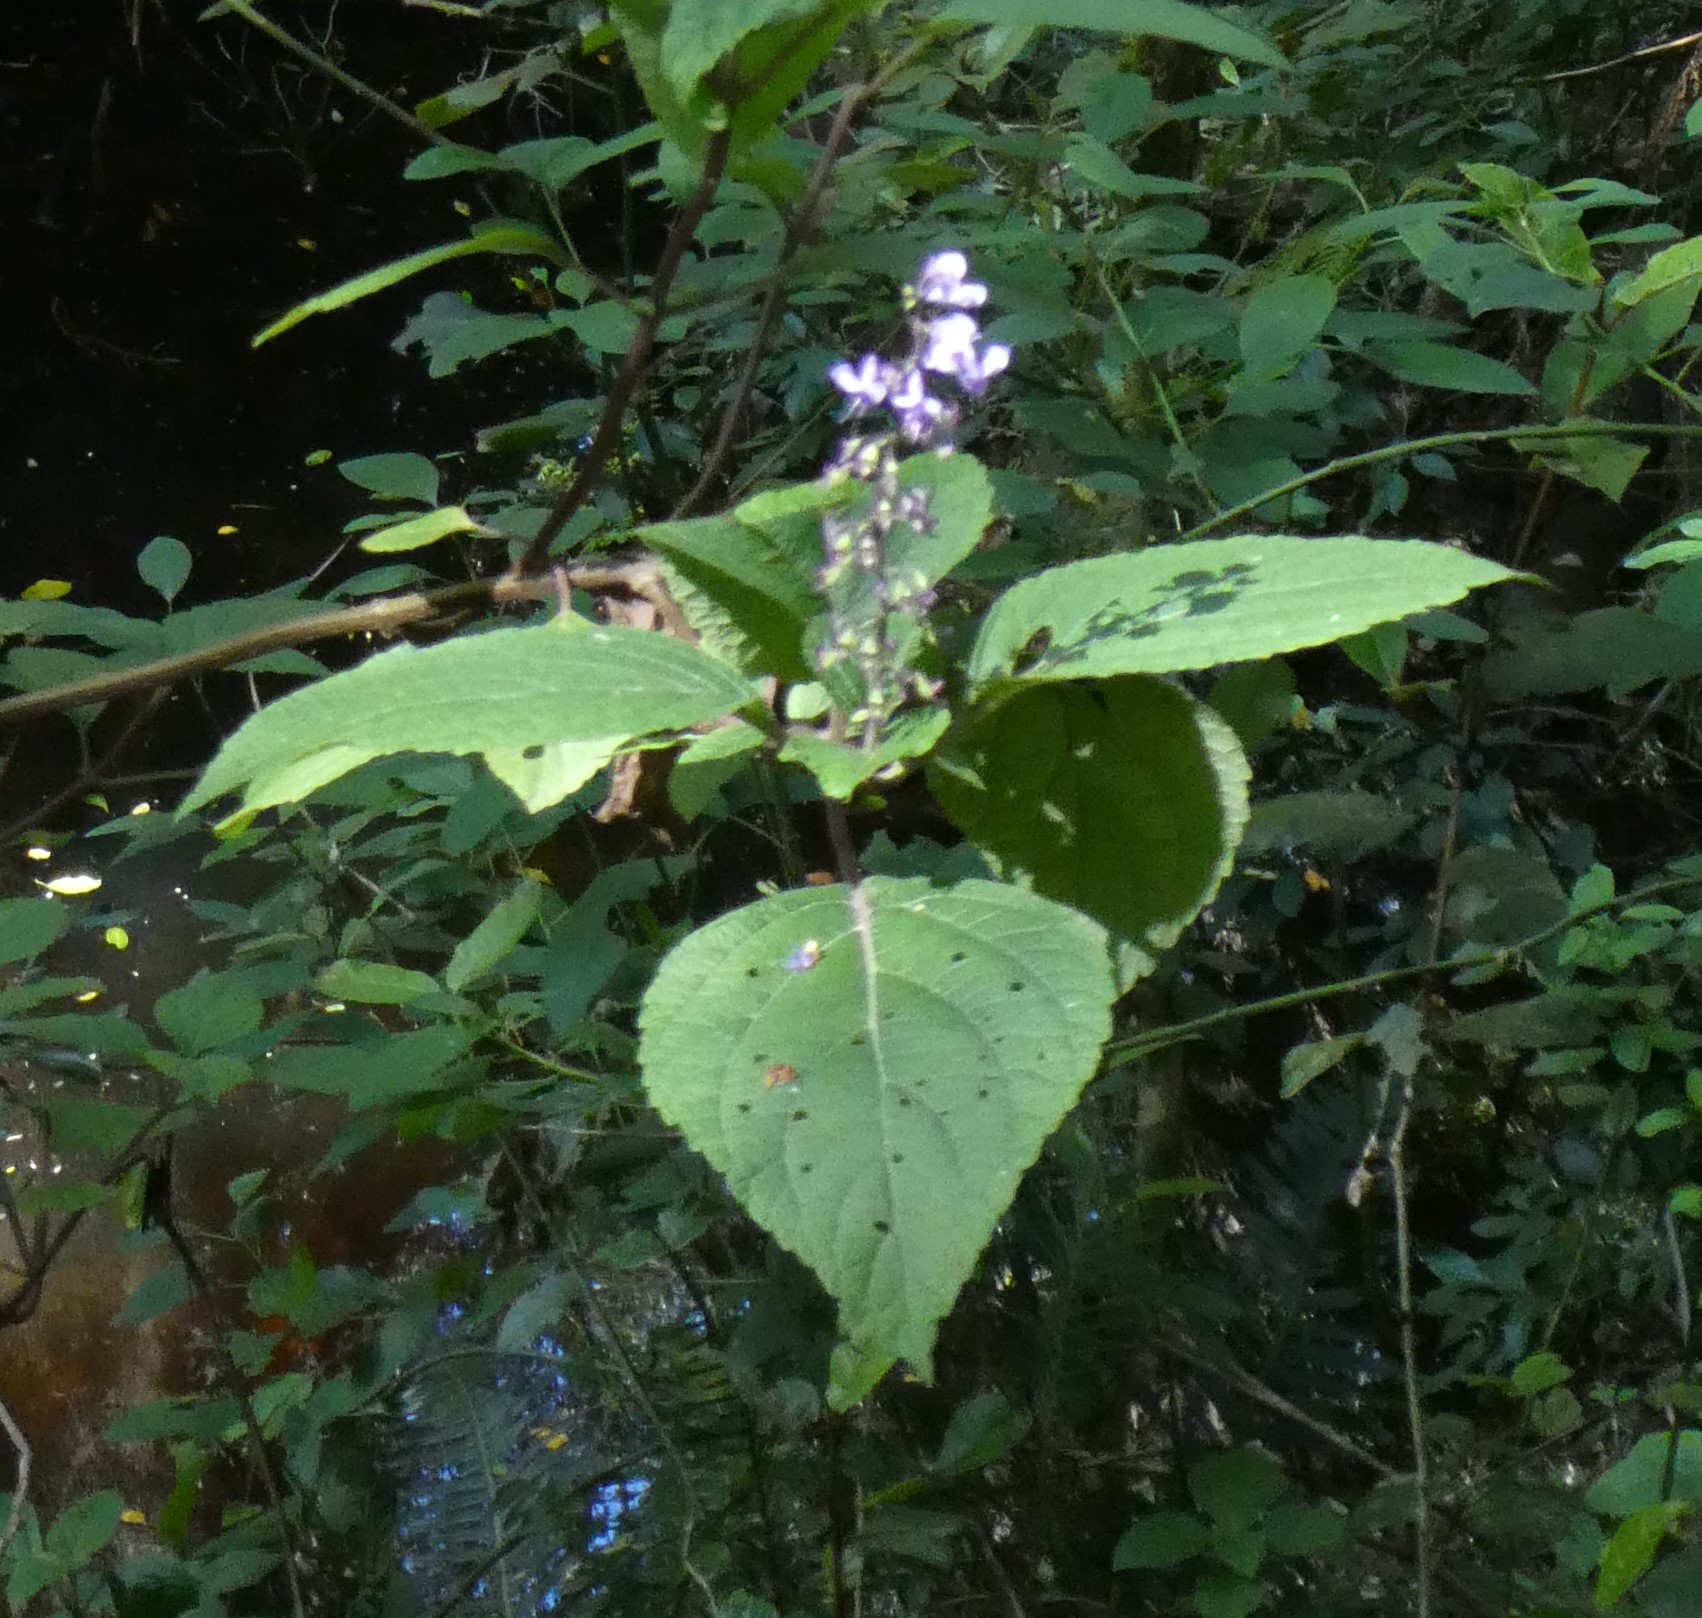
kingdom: Plantae
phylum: Tracheophyta
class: Magnoliopsida
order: Lamiales
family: Lamiaceae
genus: Plectranthus
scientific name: Plectranthus fruticosus
